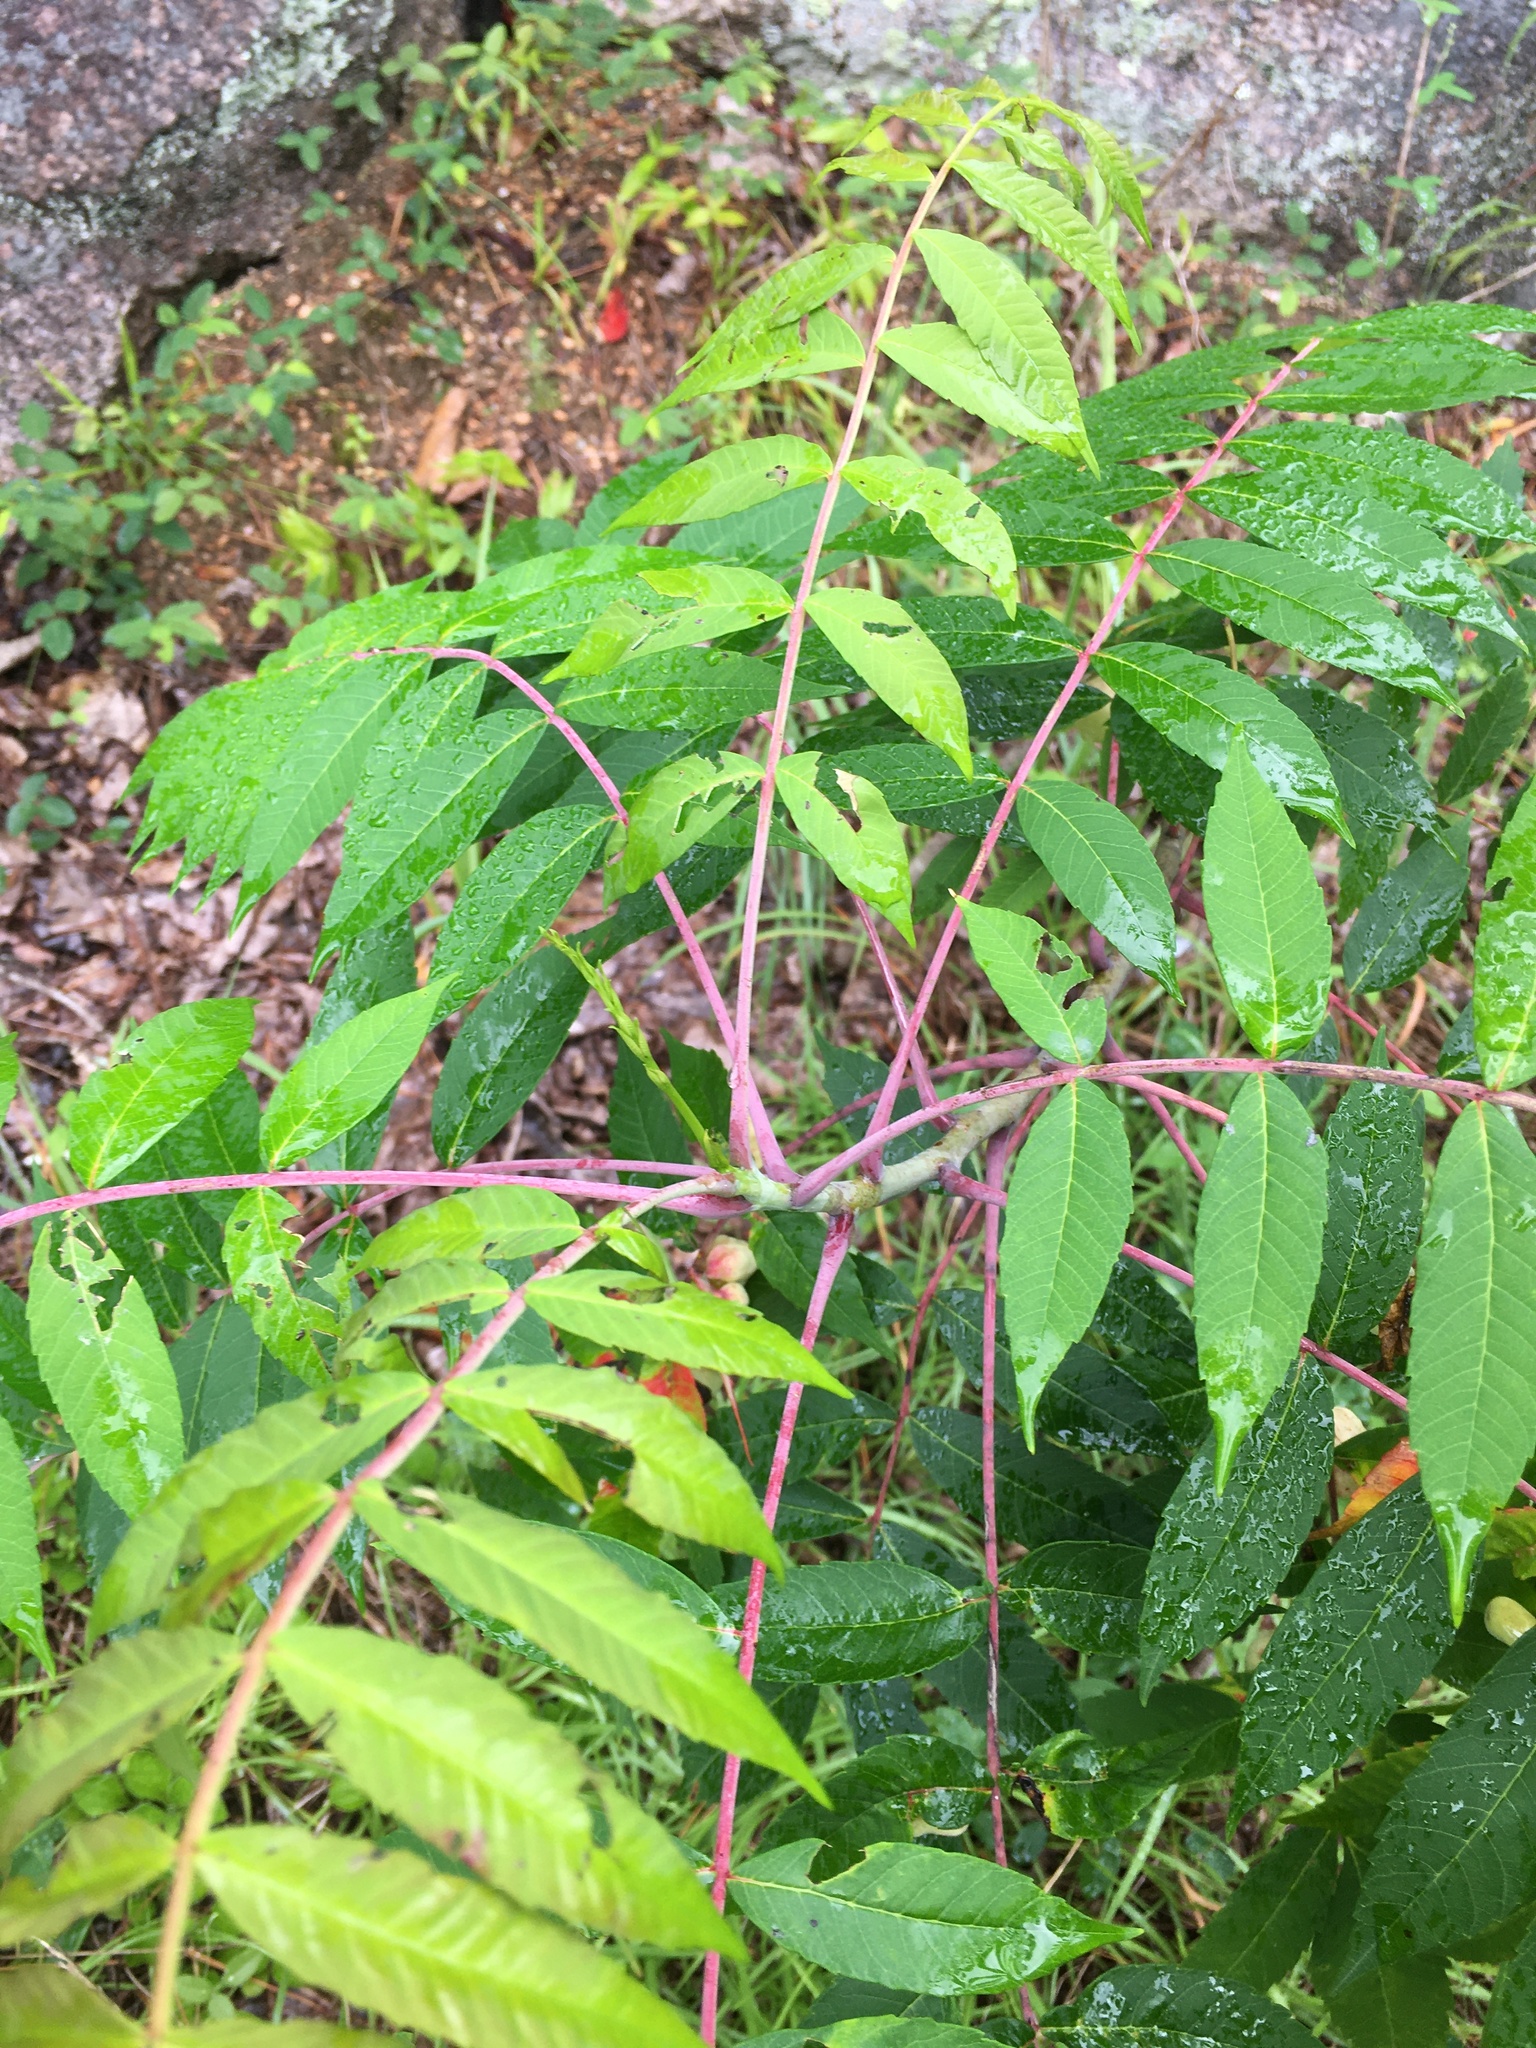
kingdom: Plantae
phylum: Tracheophyta
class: Magnoliopsida
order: Sapindales
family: Anacardiaceae
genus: Rhus
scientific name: Rhus glabra
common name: Scarlet sumac
